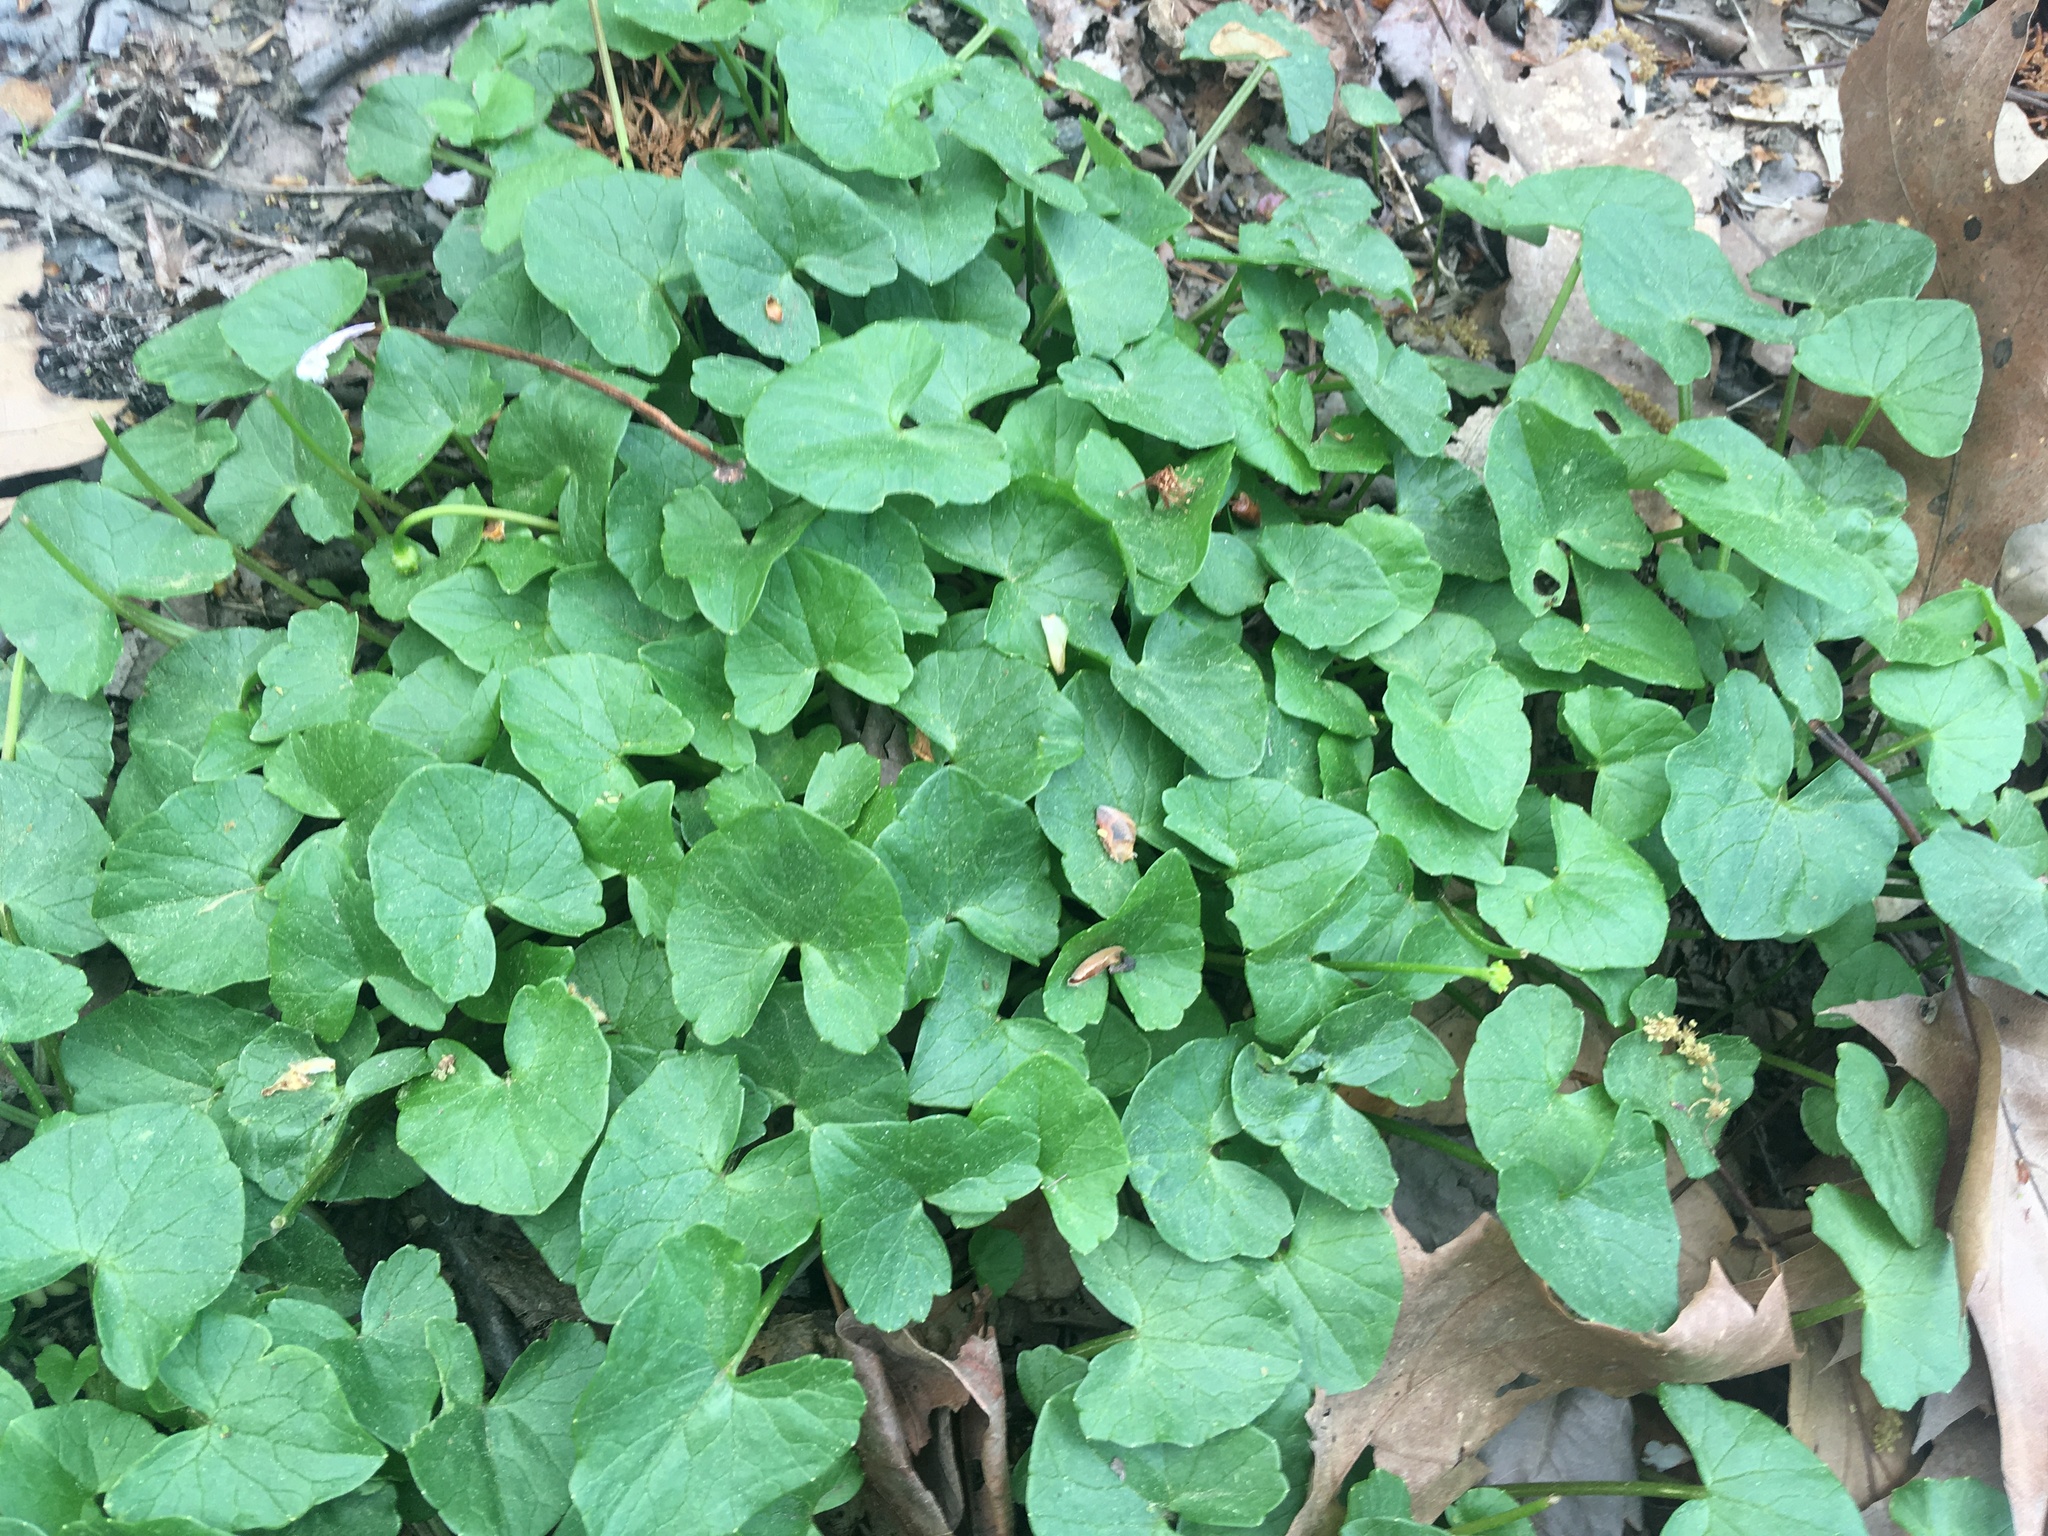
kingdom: Plantae
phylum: Tracheophyta
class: Magnoliopsida
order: Ranunculales
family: Ranunculaceae
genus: Ficaria
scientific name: Ficaria verna
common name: Lesser celandine
